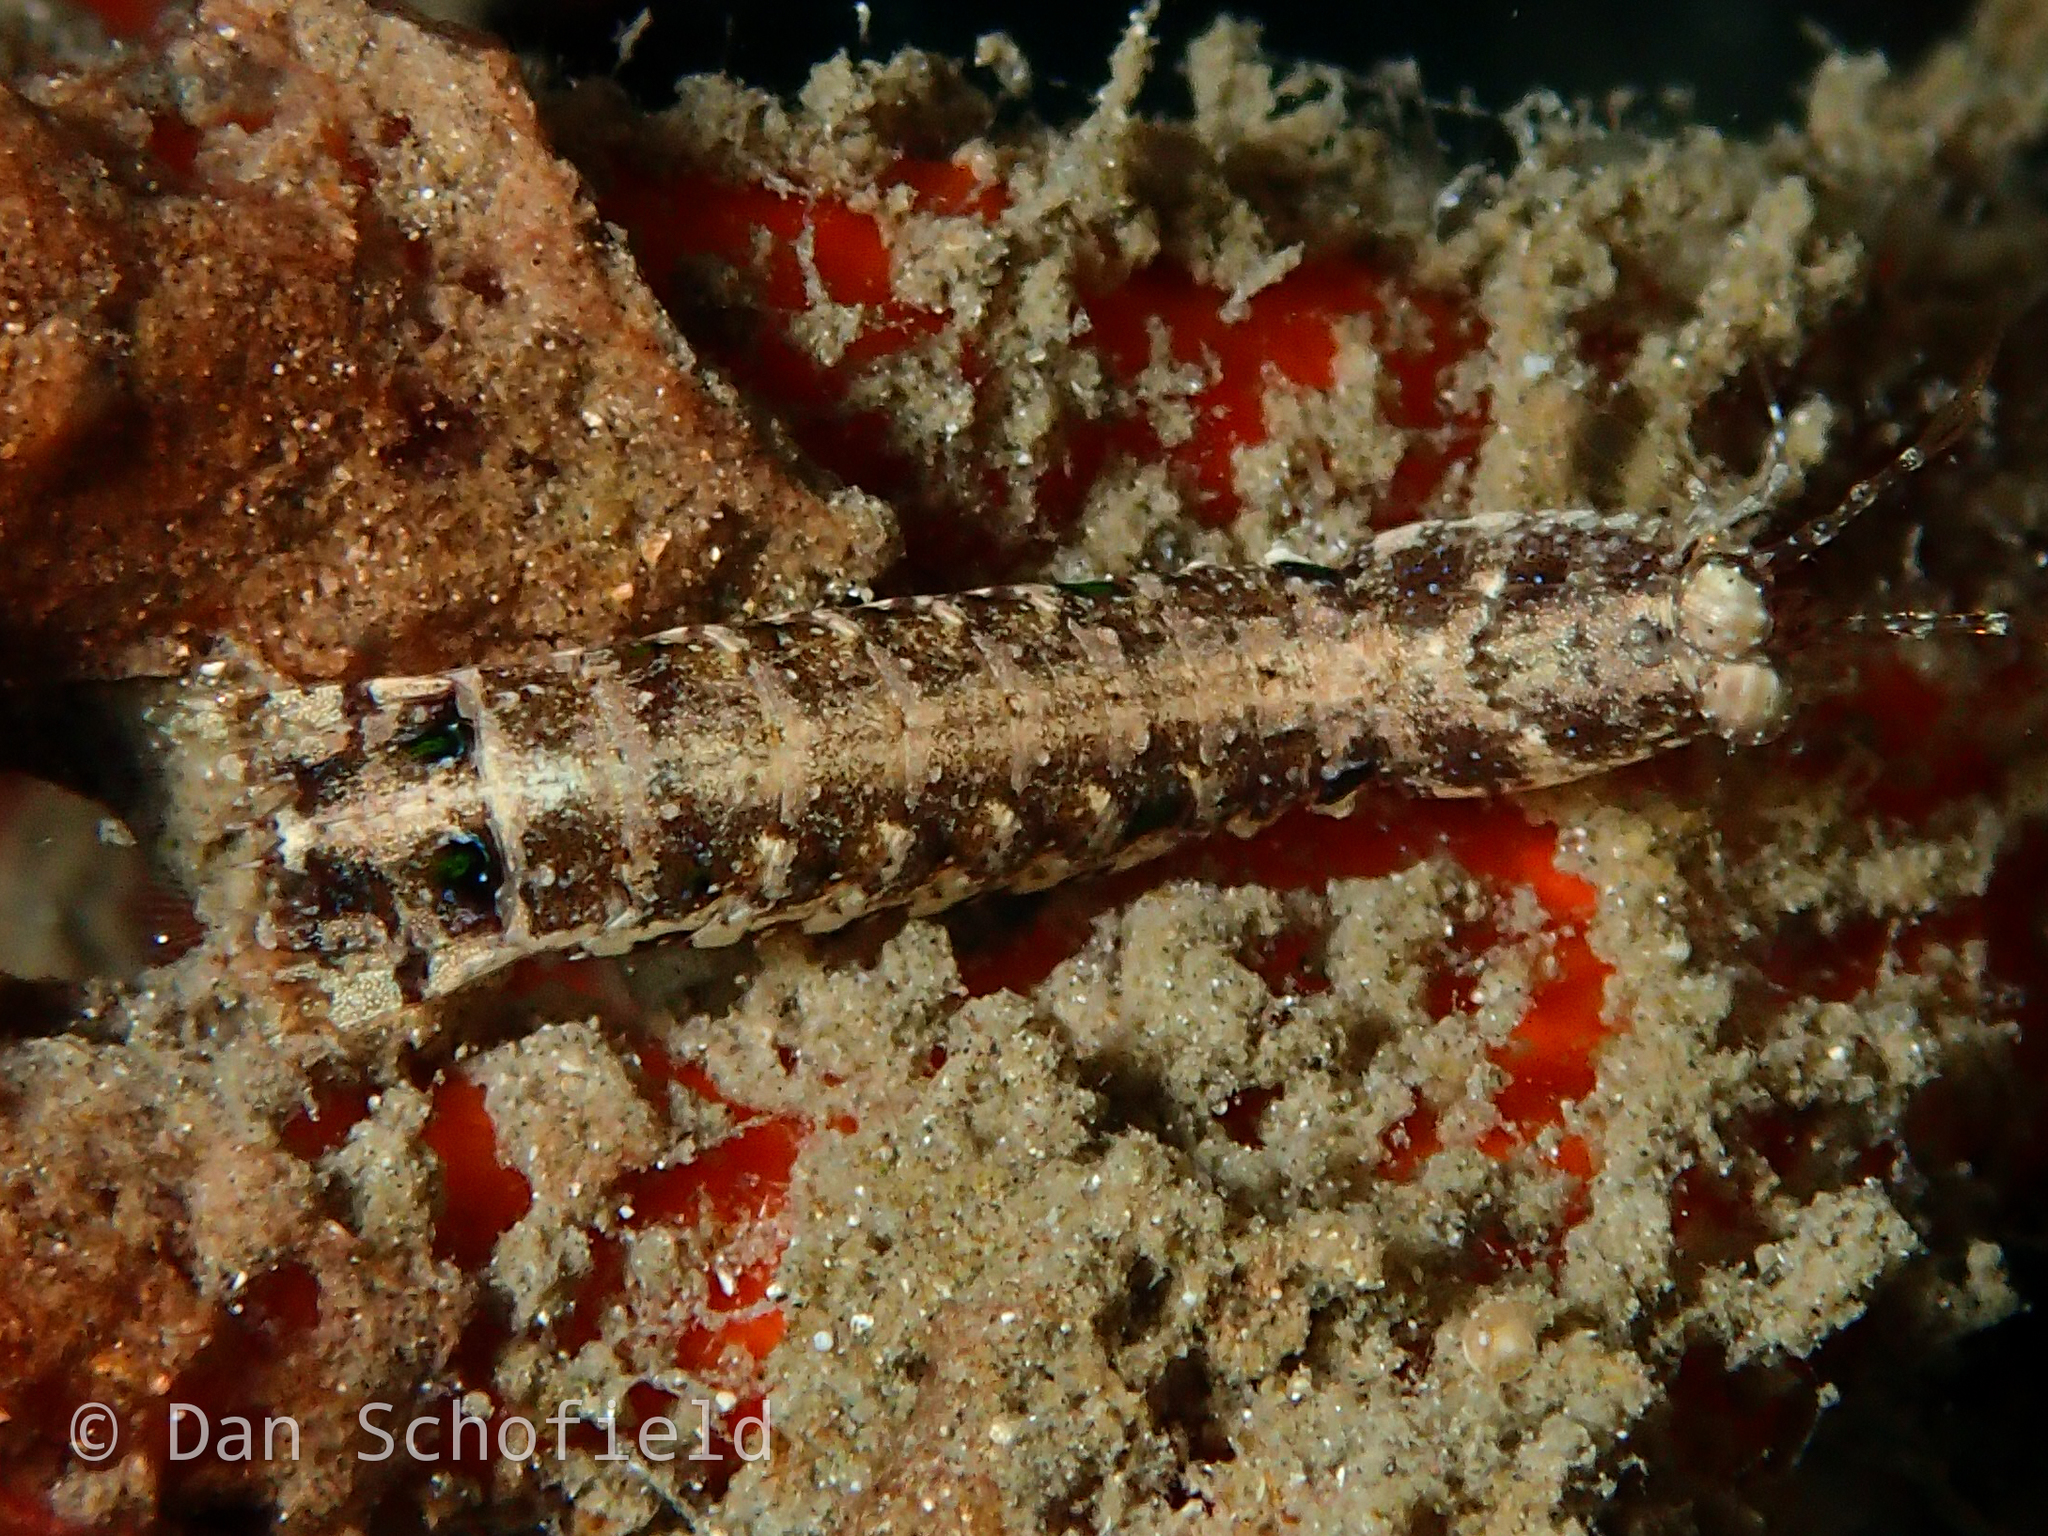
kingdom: Animalia
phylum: Arthropoda
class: Malacostraca
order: Stomatopoda
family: Pseudosquillidae
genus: Pseudosquilla
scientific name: Pseudosquilla ciliata
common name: Ciliated false squilla
